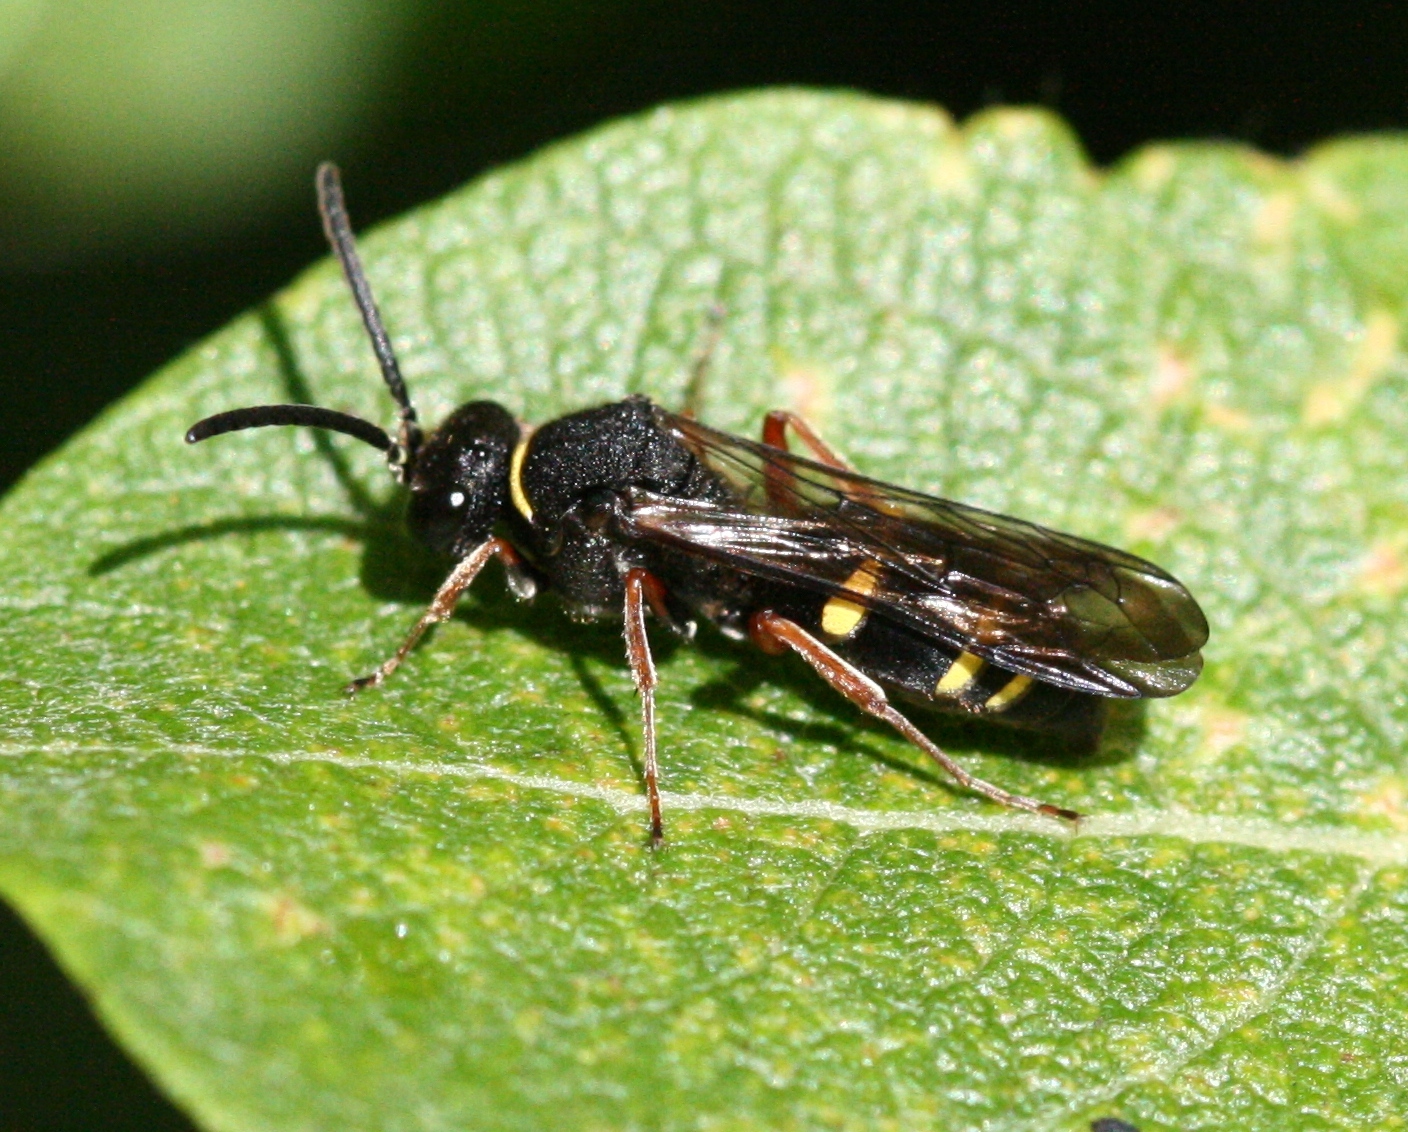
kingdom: Animalia
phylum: Arthropoda
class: Insecta
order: Hymenoptera
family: Crabronidae
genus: Nysson
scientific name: Nysson spinosus
